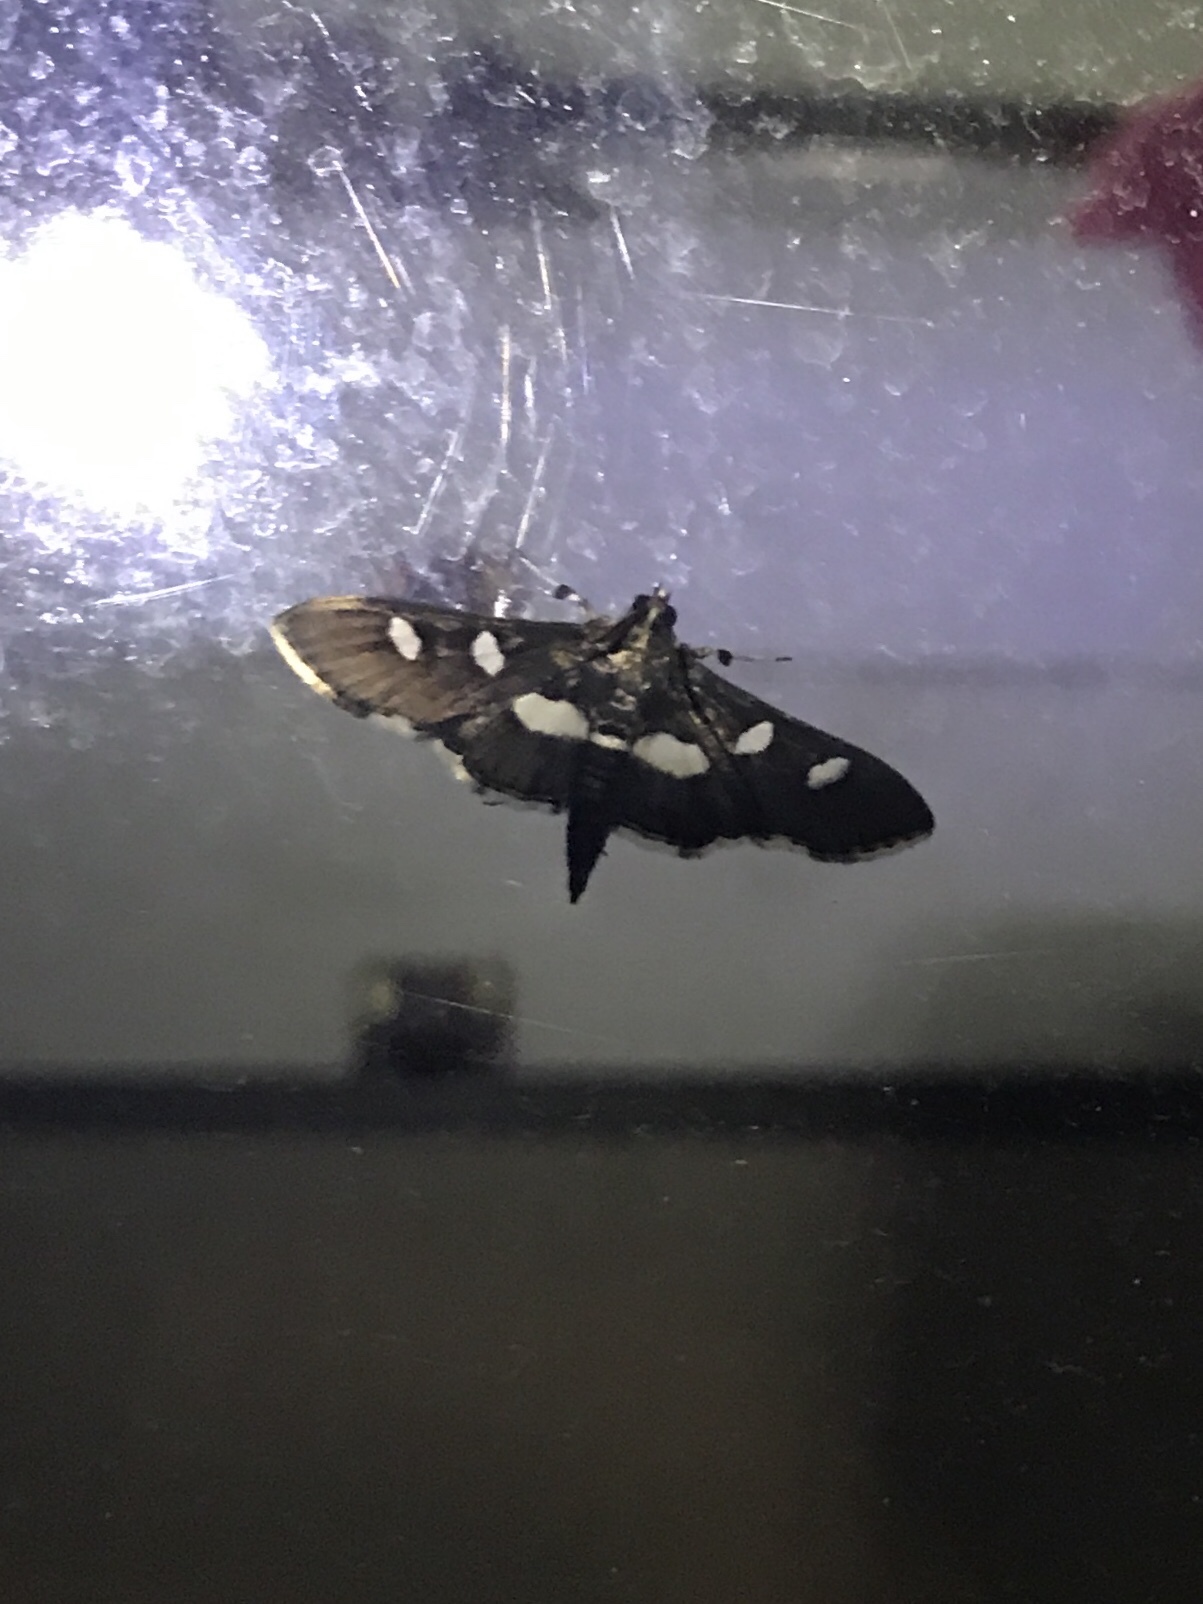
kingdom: Animalia
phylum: Arthropoda
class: Insecta
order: Lepidoptera
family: Crambidae
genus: Desmia
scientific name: Desmia
